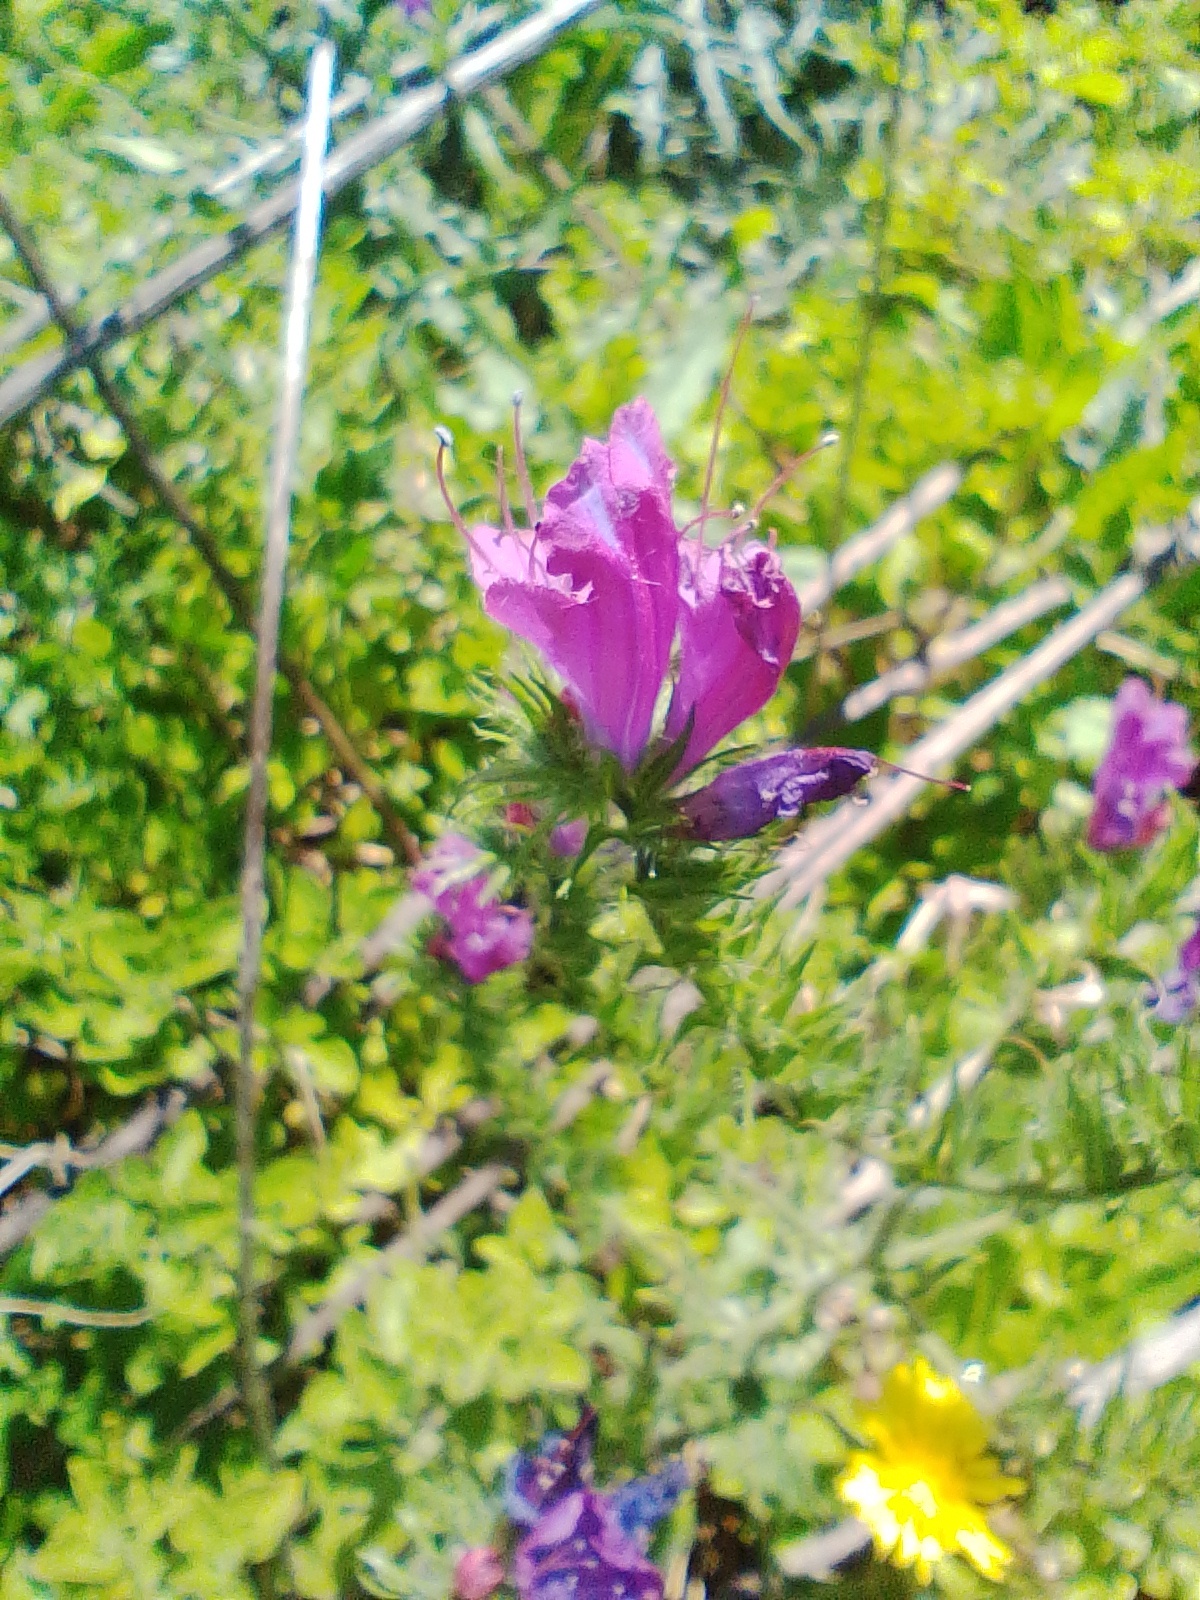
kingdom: Plantae
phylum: Tracheophyta
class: Magnoliopsida
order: Boraginales
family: Boraginaceae
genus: Echium
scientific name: Echium plantagineum
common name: Purple viper's-bugloss
